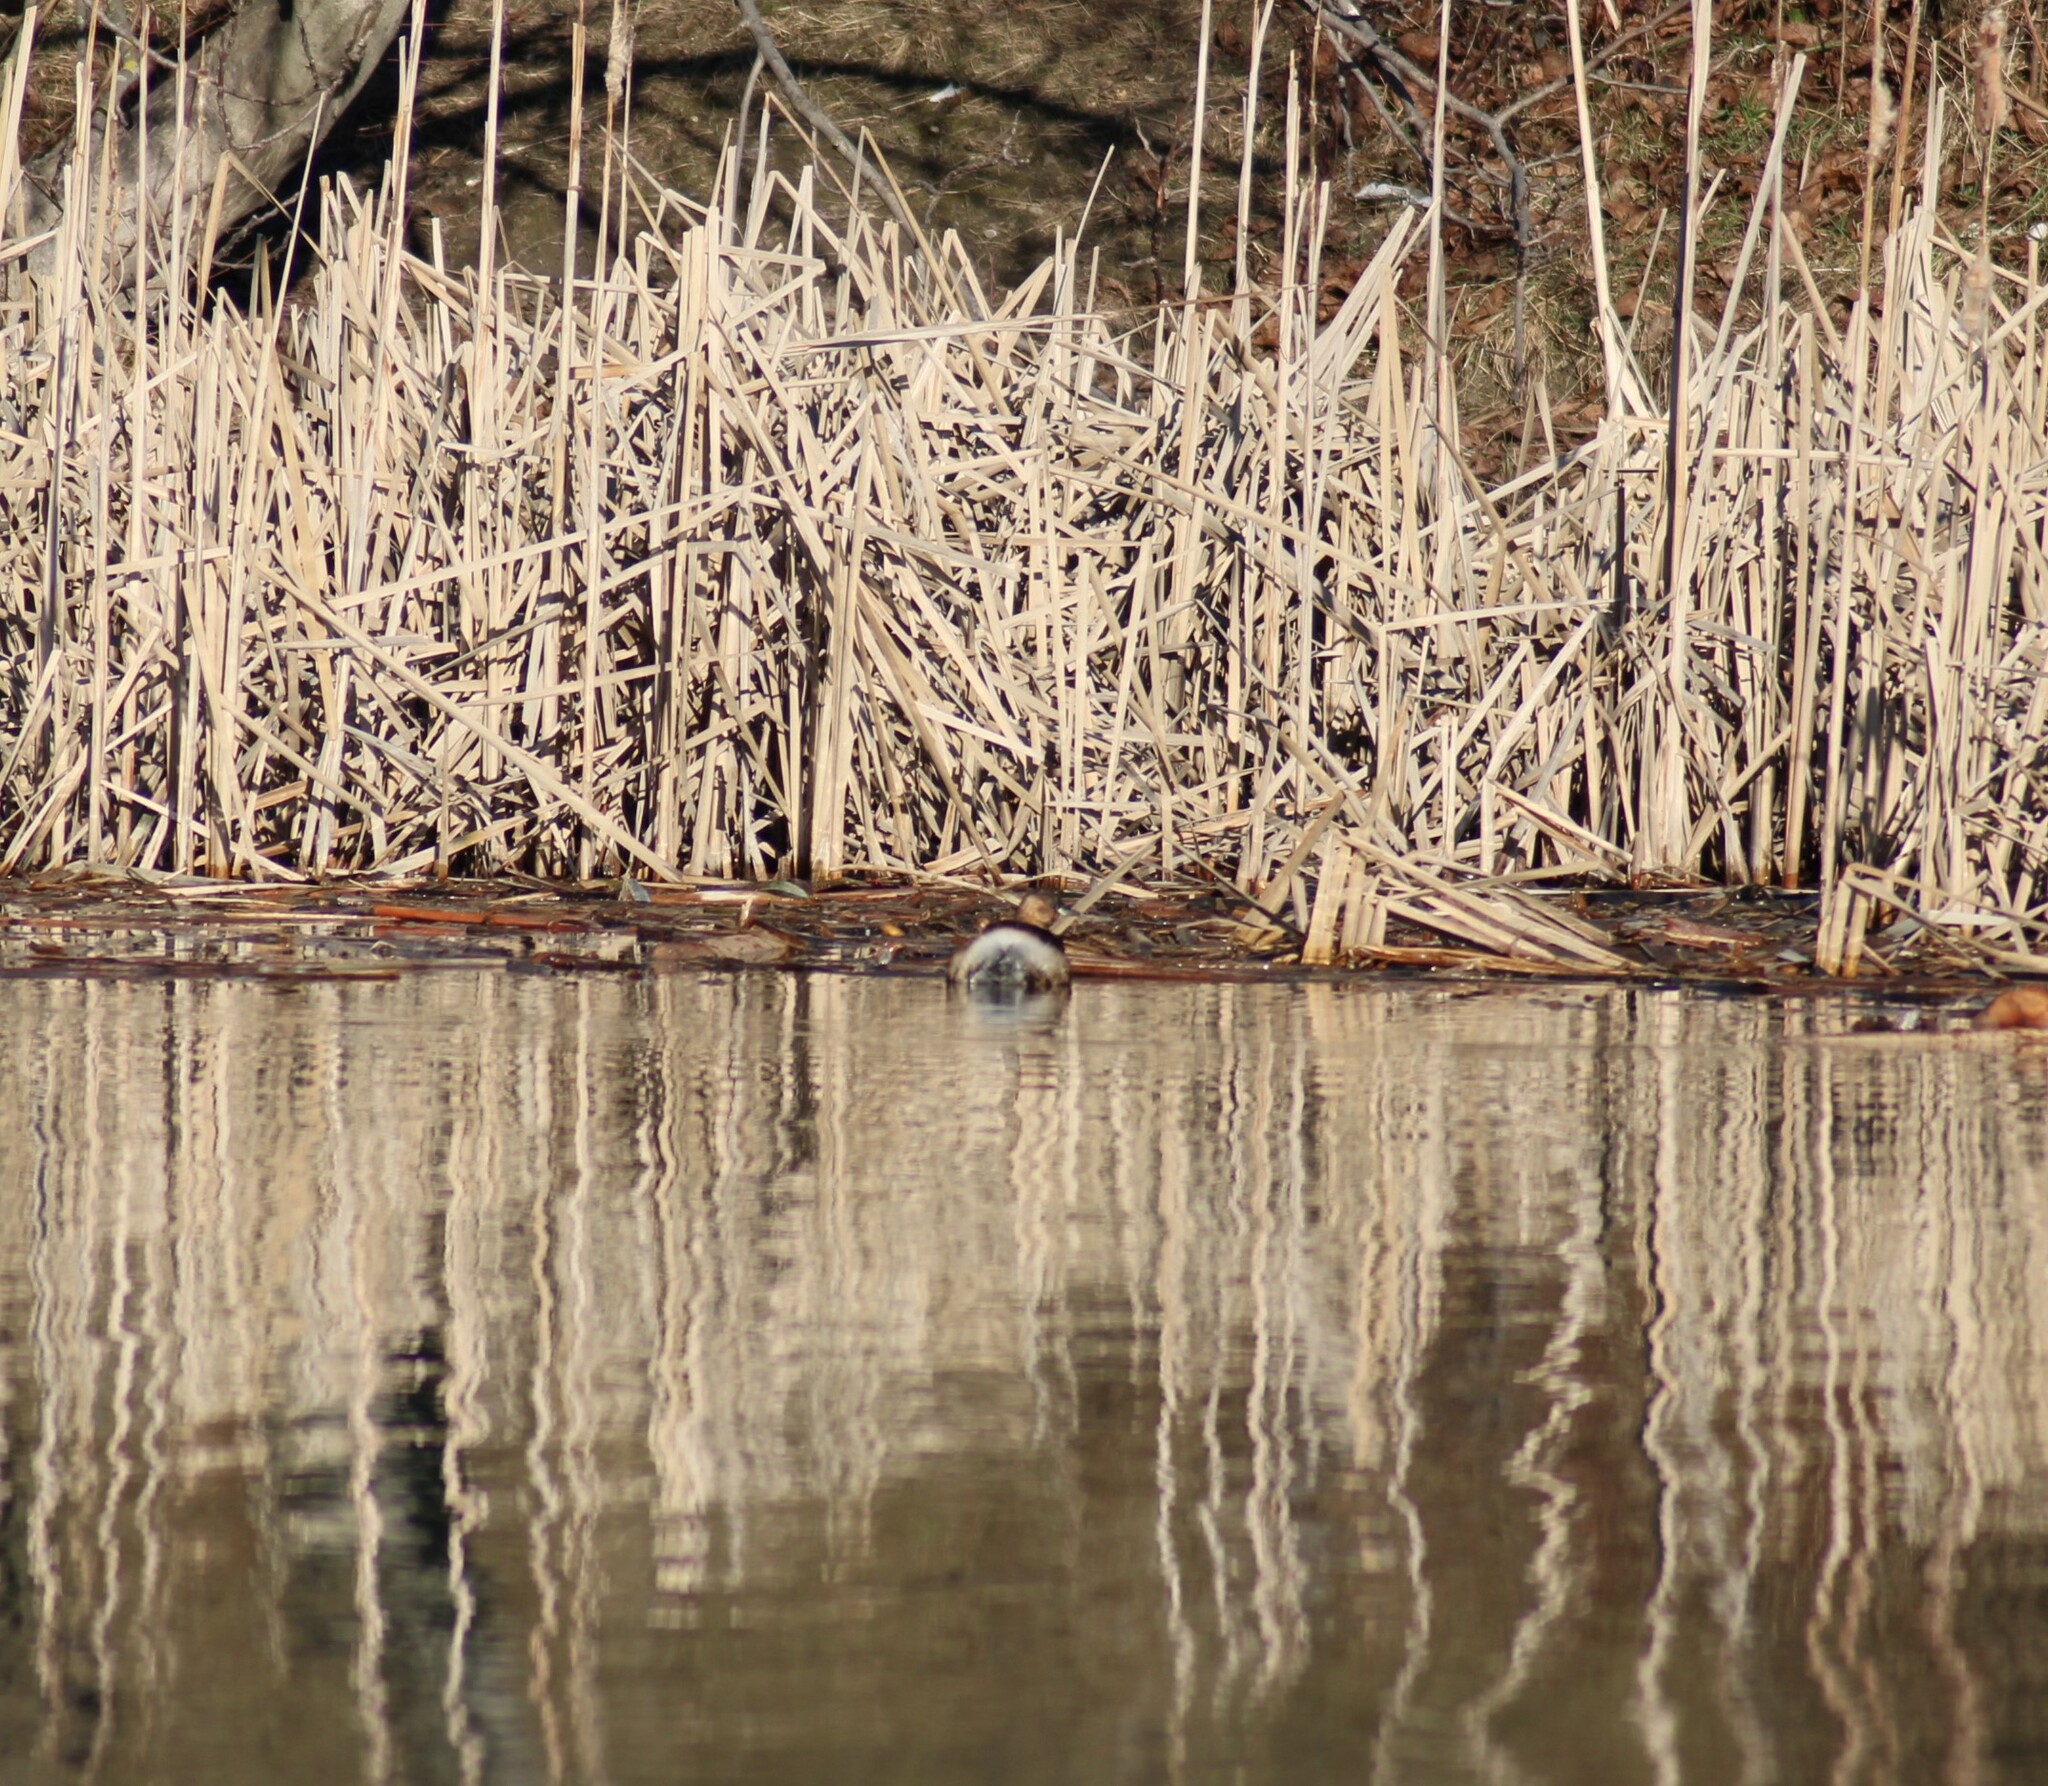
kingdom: Animalia
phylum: Chordata
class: Aves
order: Podicipediformes
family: Podicipedidae
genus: Tachybaptus
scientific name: Tachybaptus ruficollis
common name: Little grebe
